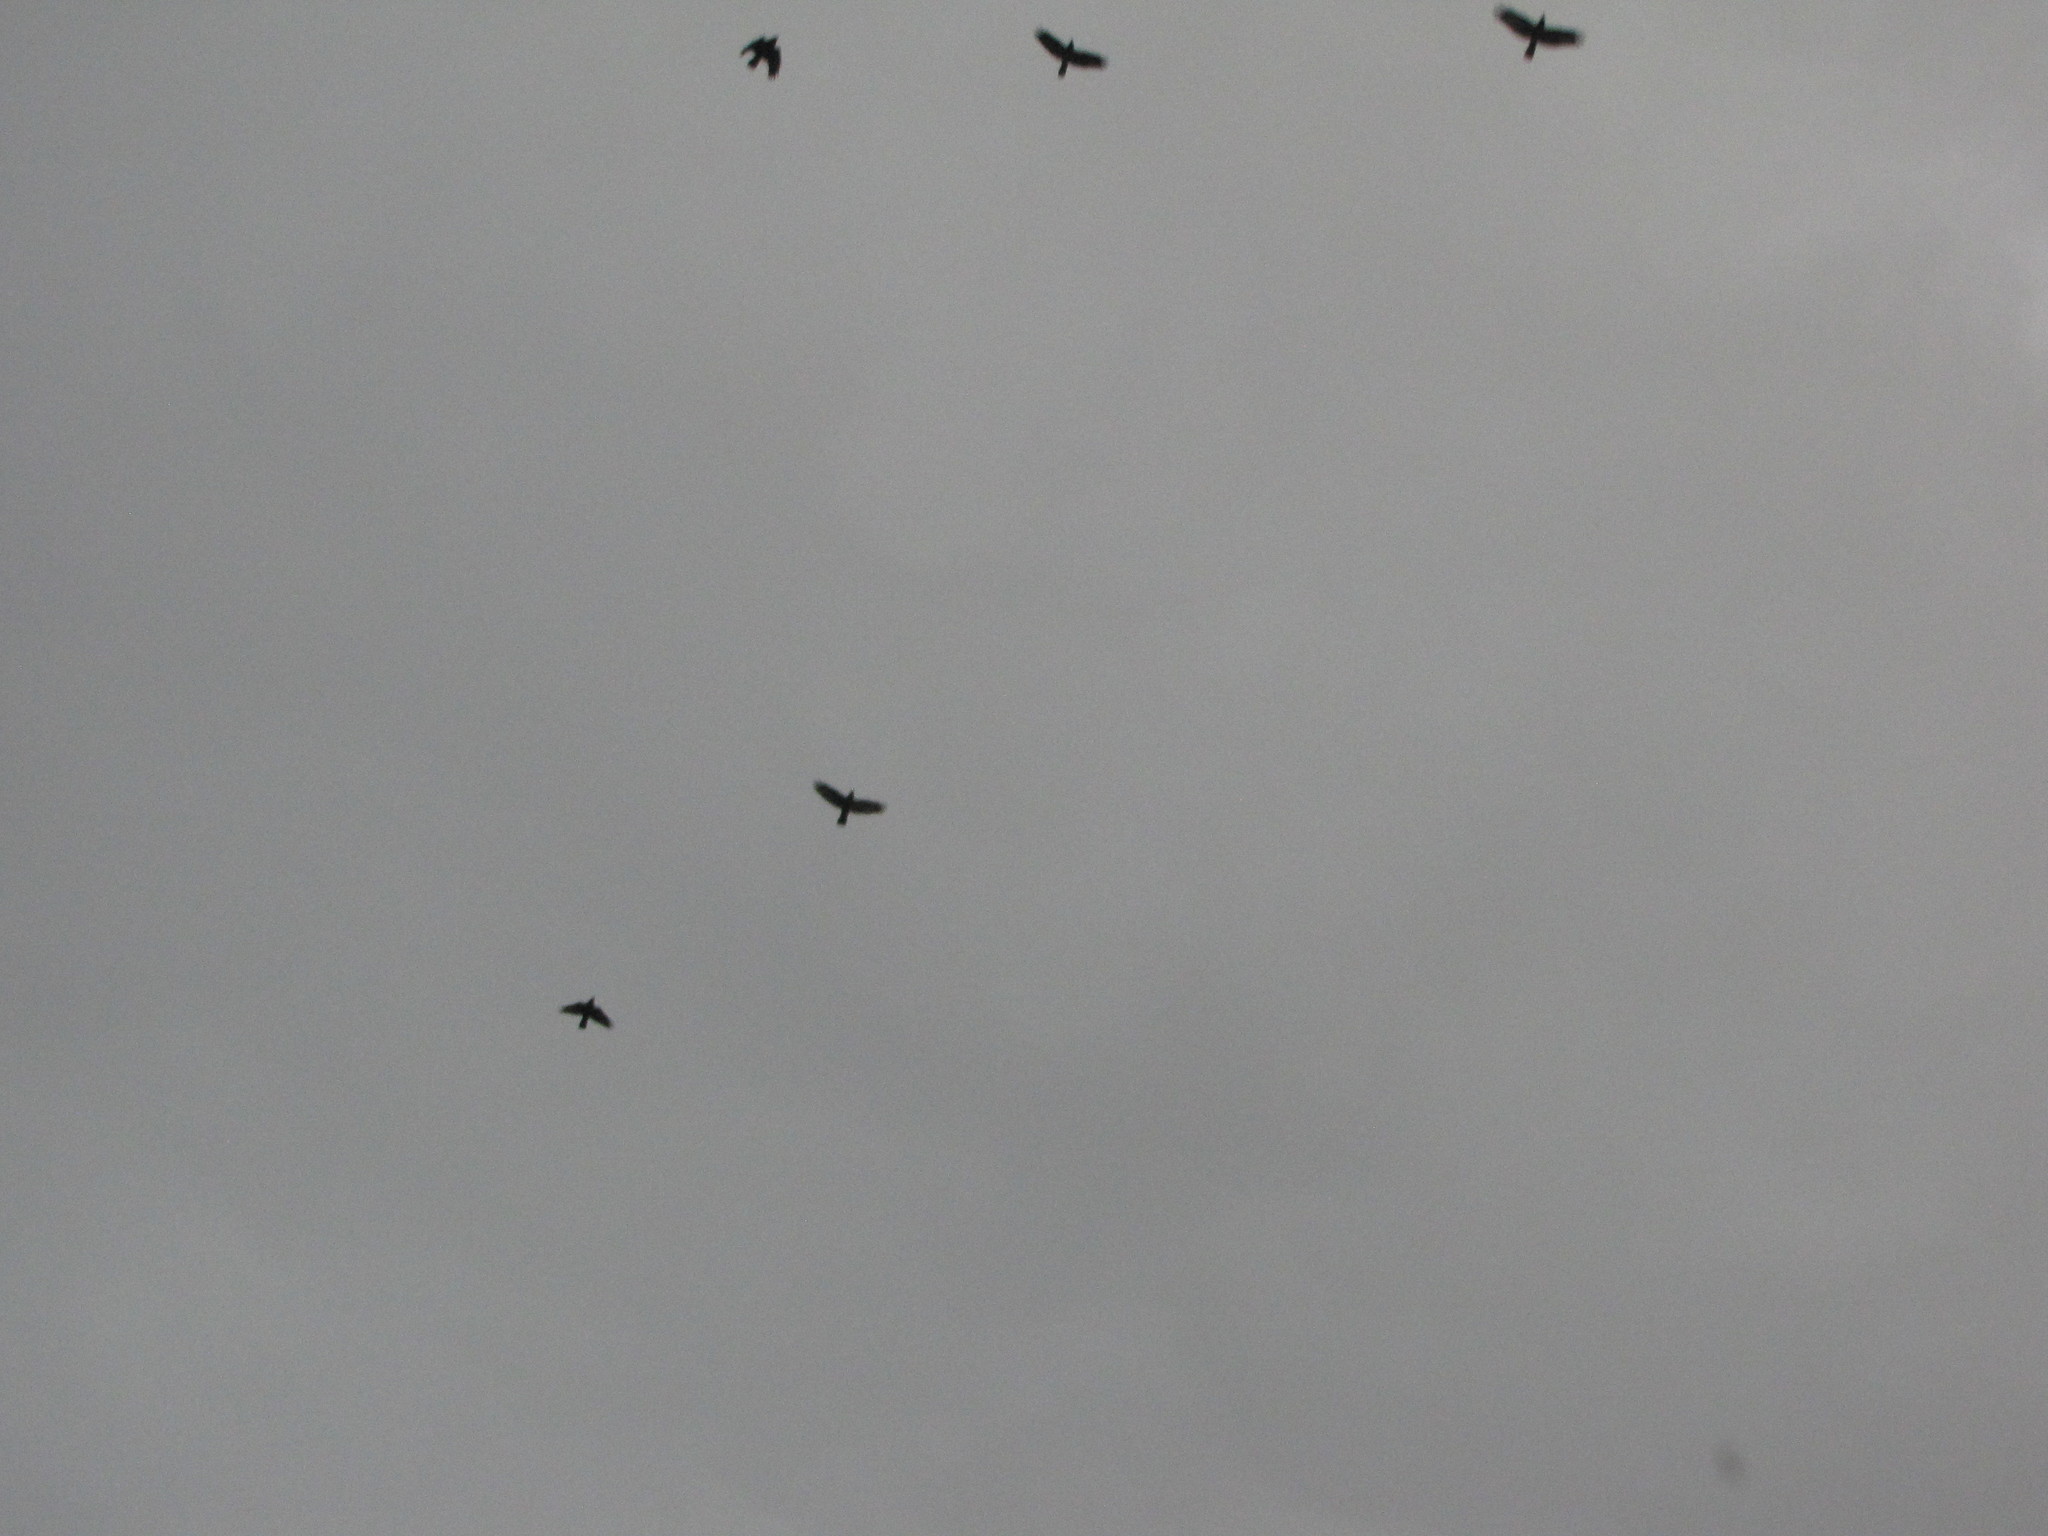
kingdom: Animalia
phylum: Chordata
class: Aves
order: Passeriformes
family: Corvidae
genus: Corvus
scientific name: Corvus brachyrhynchos
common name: American crow
